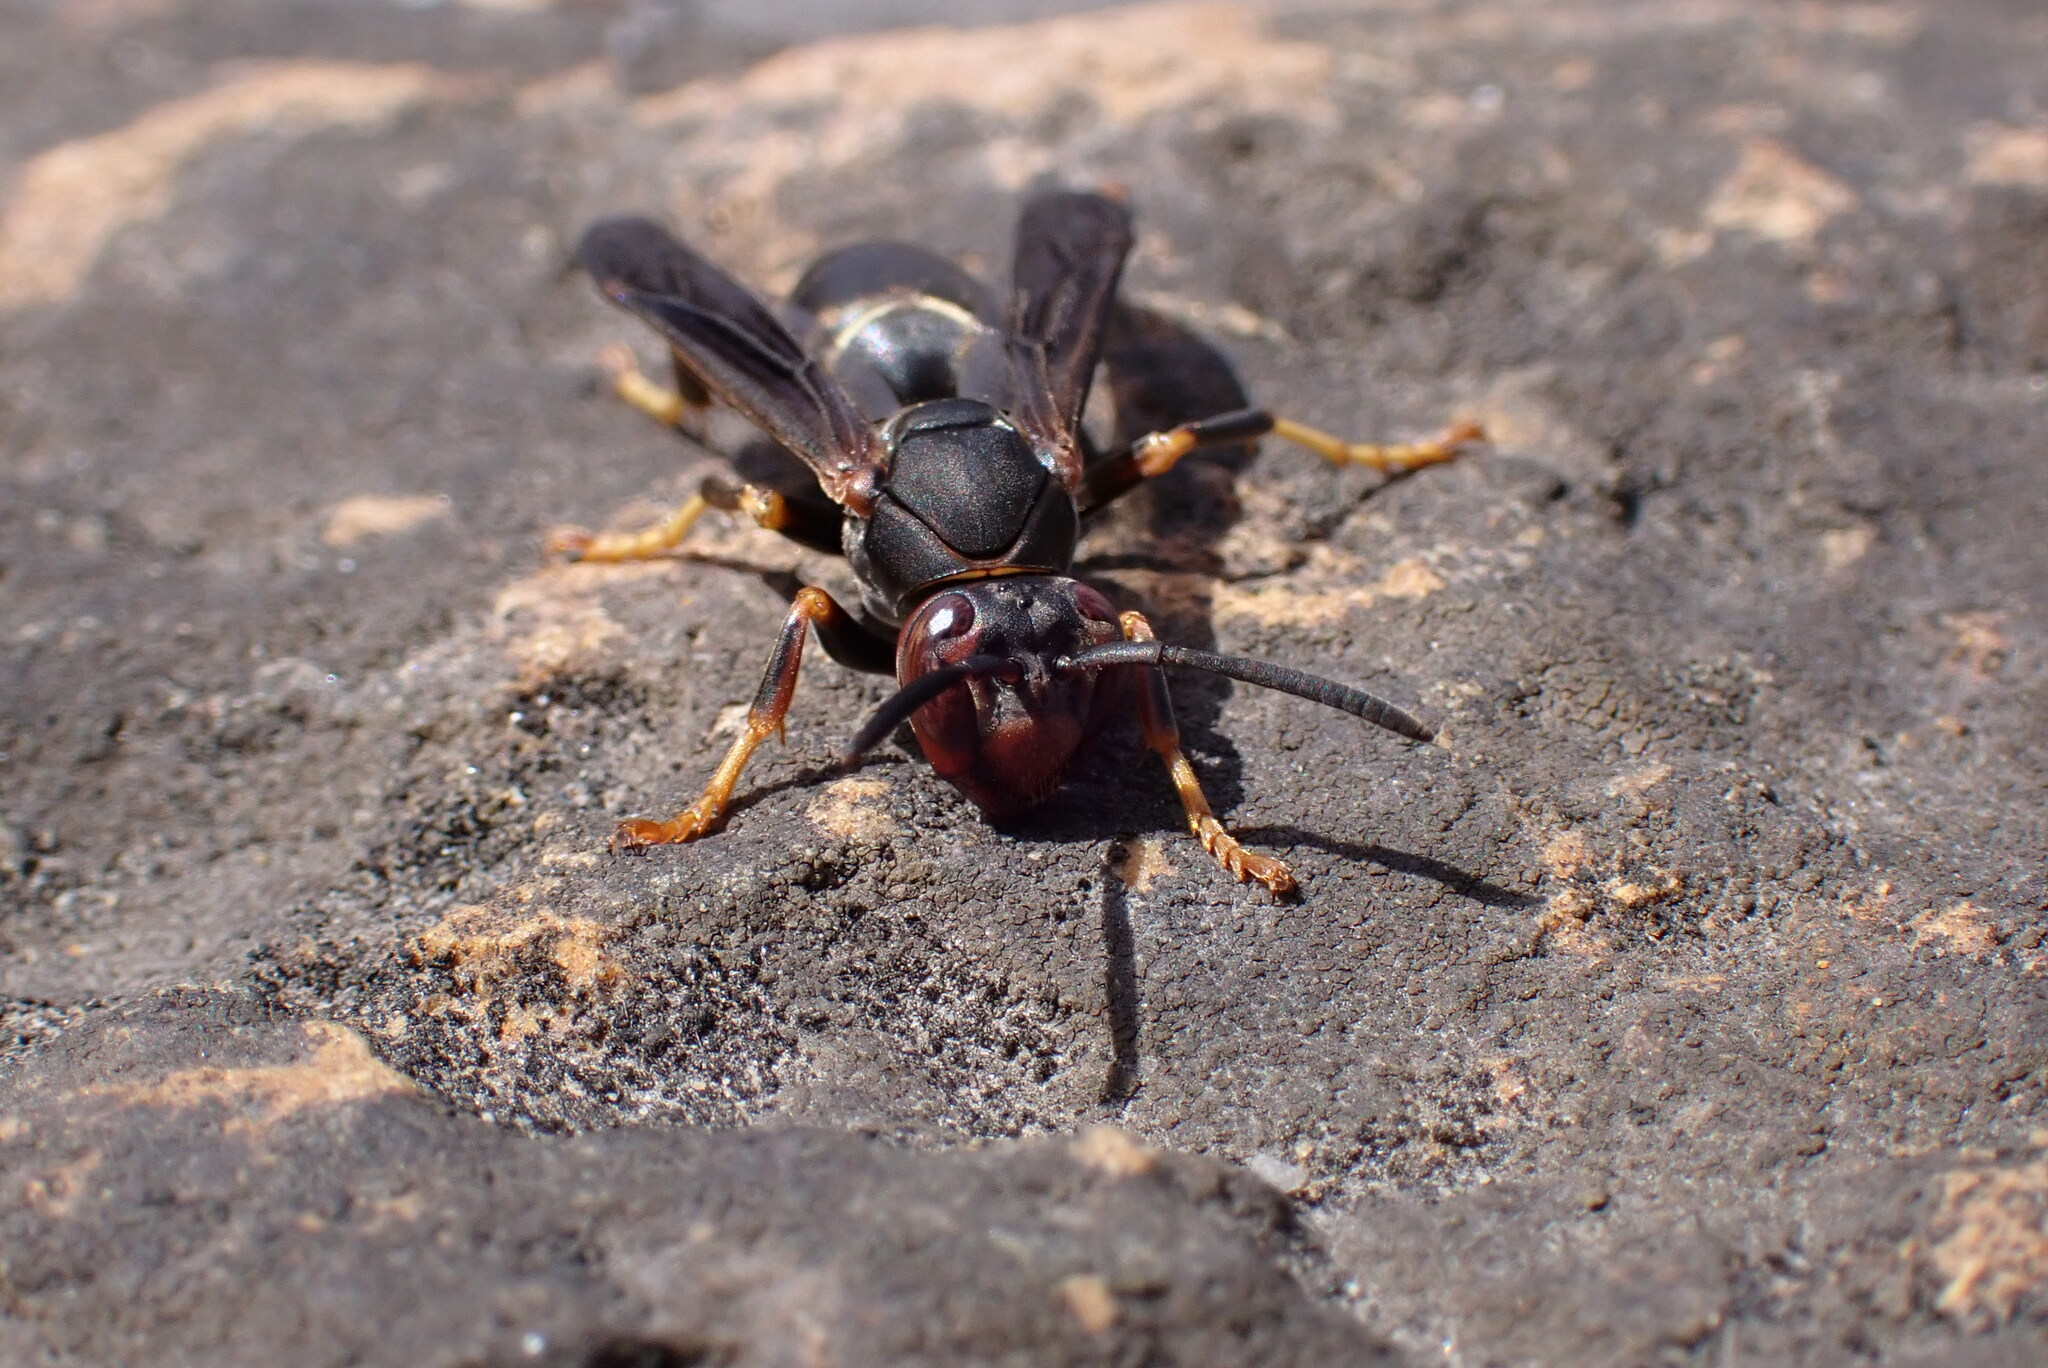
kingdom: Animalia
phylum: Arthropoda
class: Insecta
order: Hymenoptera
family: Vespidae
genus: Fuscopolistes
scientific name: Fuscopolistes
